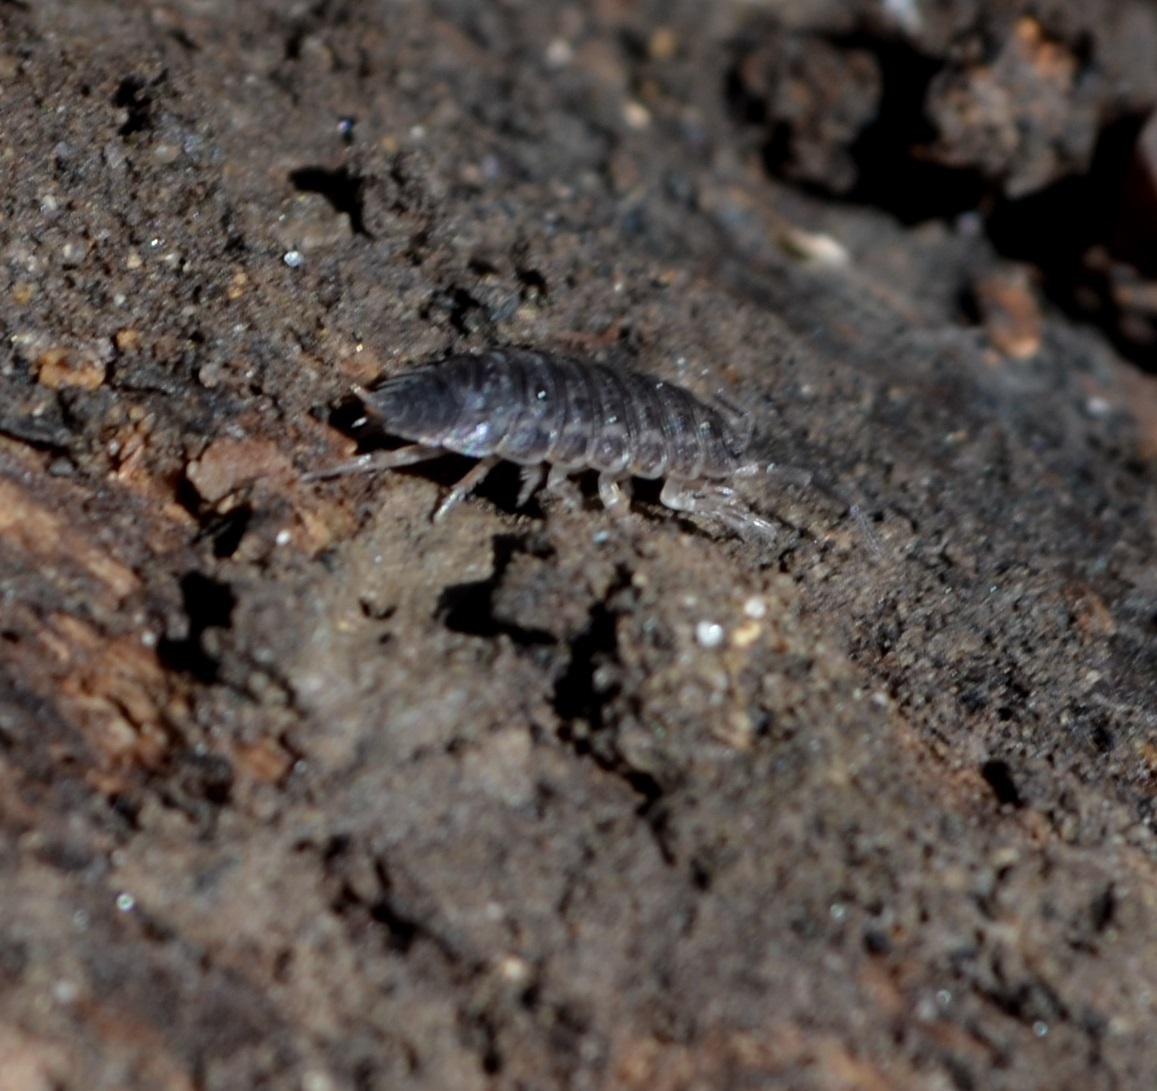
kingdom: Animalia
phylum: Arthropoda
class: Malacostraca
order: Isopoda
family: Trachelipodidae
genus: Trachelipus
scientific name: Trachelipus rathkii
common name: Isopod
